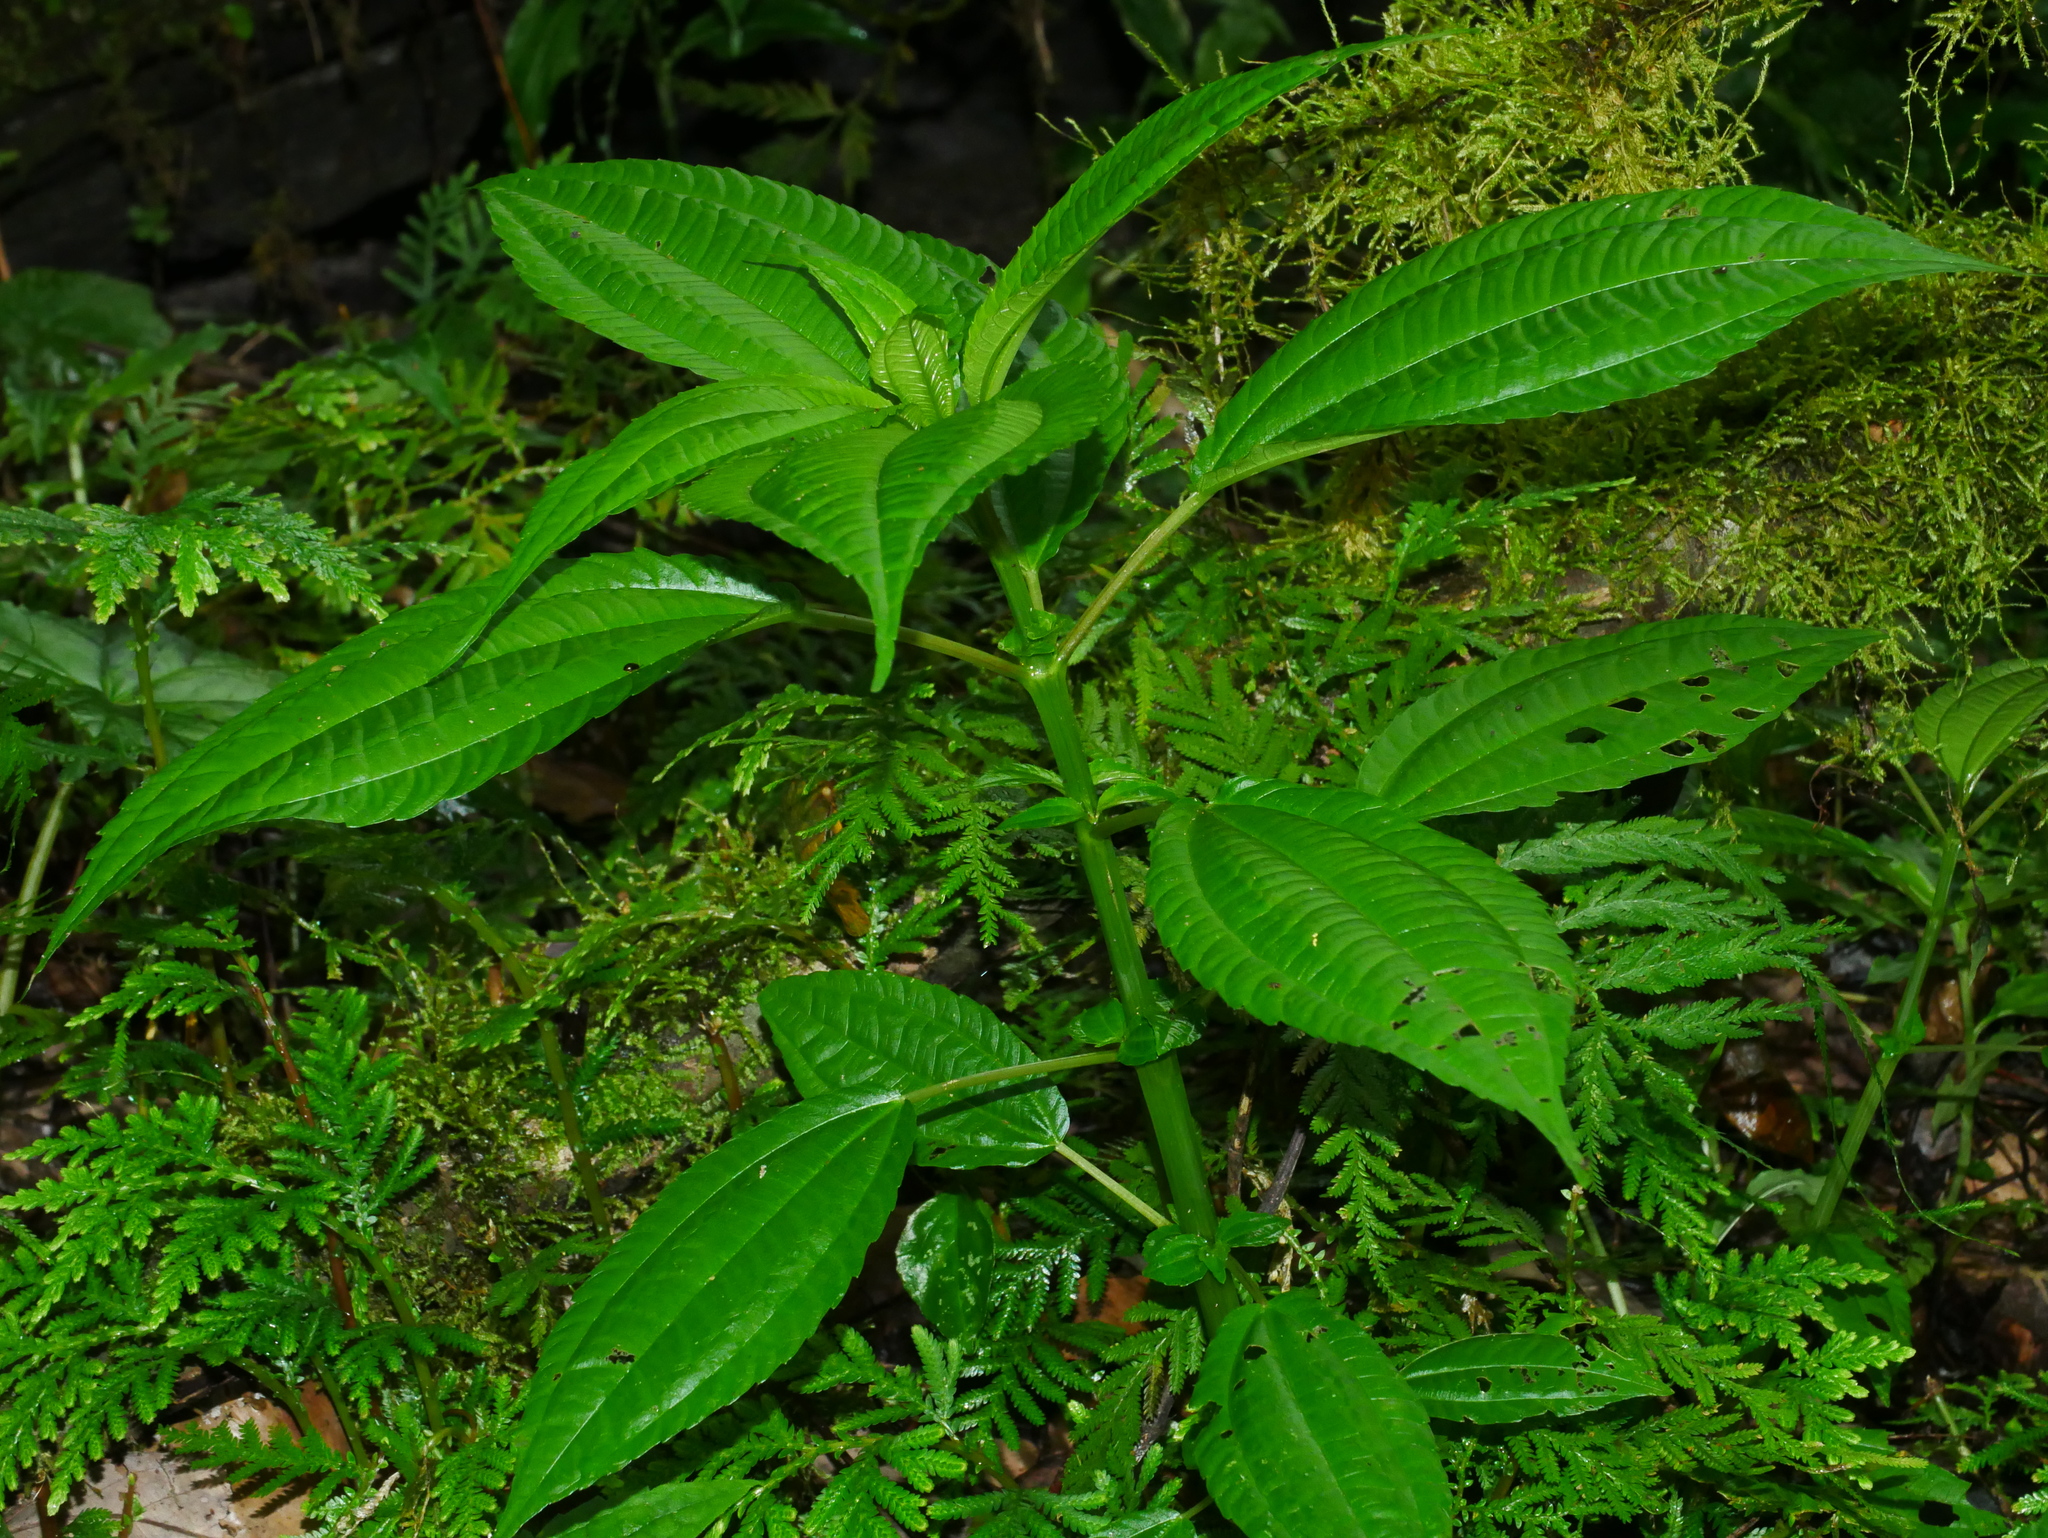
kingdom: Plantae
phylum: Tracheophyta
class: Magnoliopsida
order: Rosales
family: Urticaceae
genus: Pilea
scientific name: Pilea melastomoides
